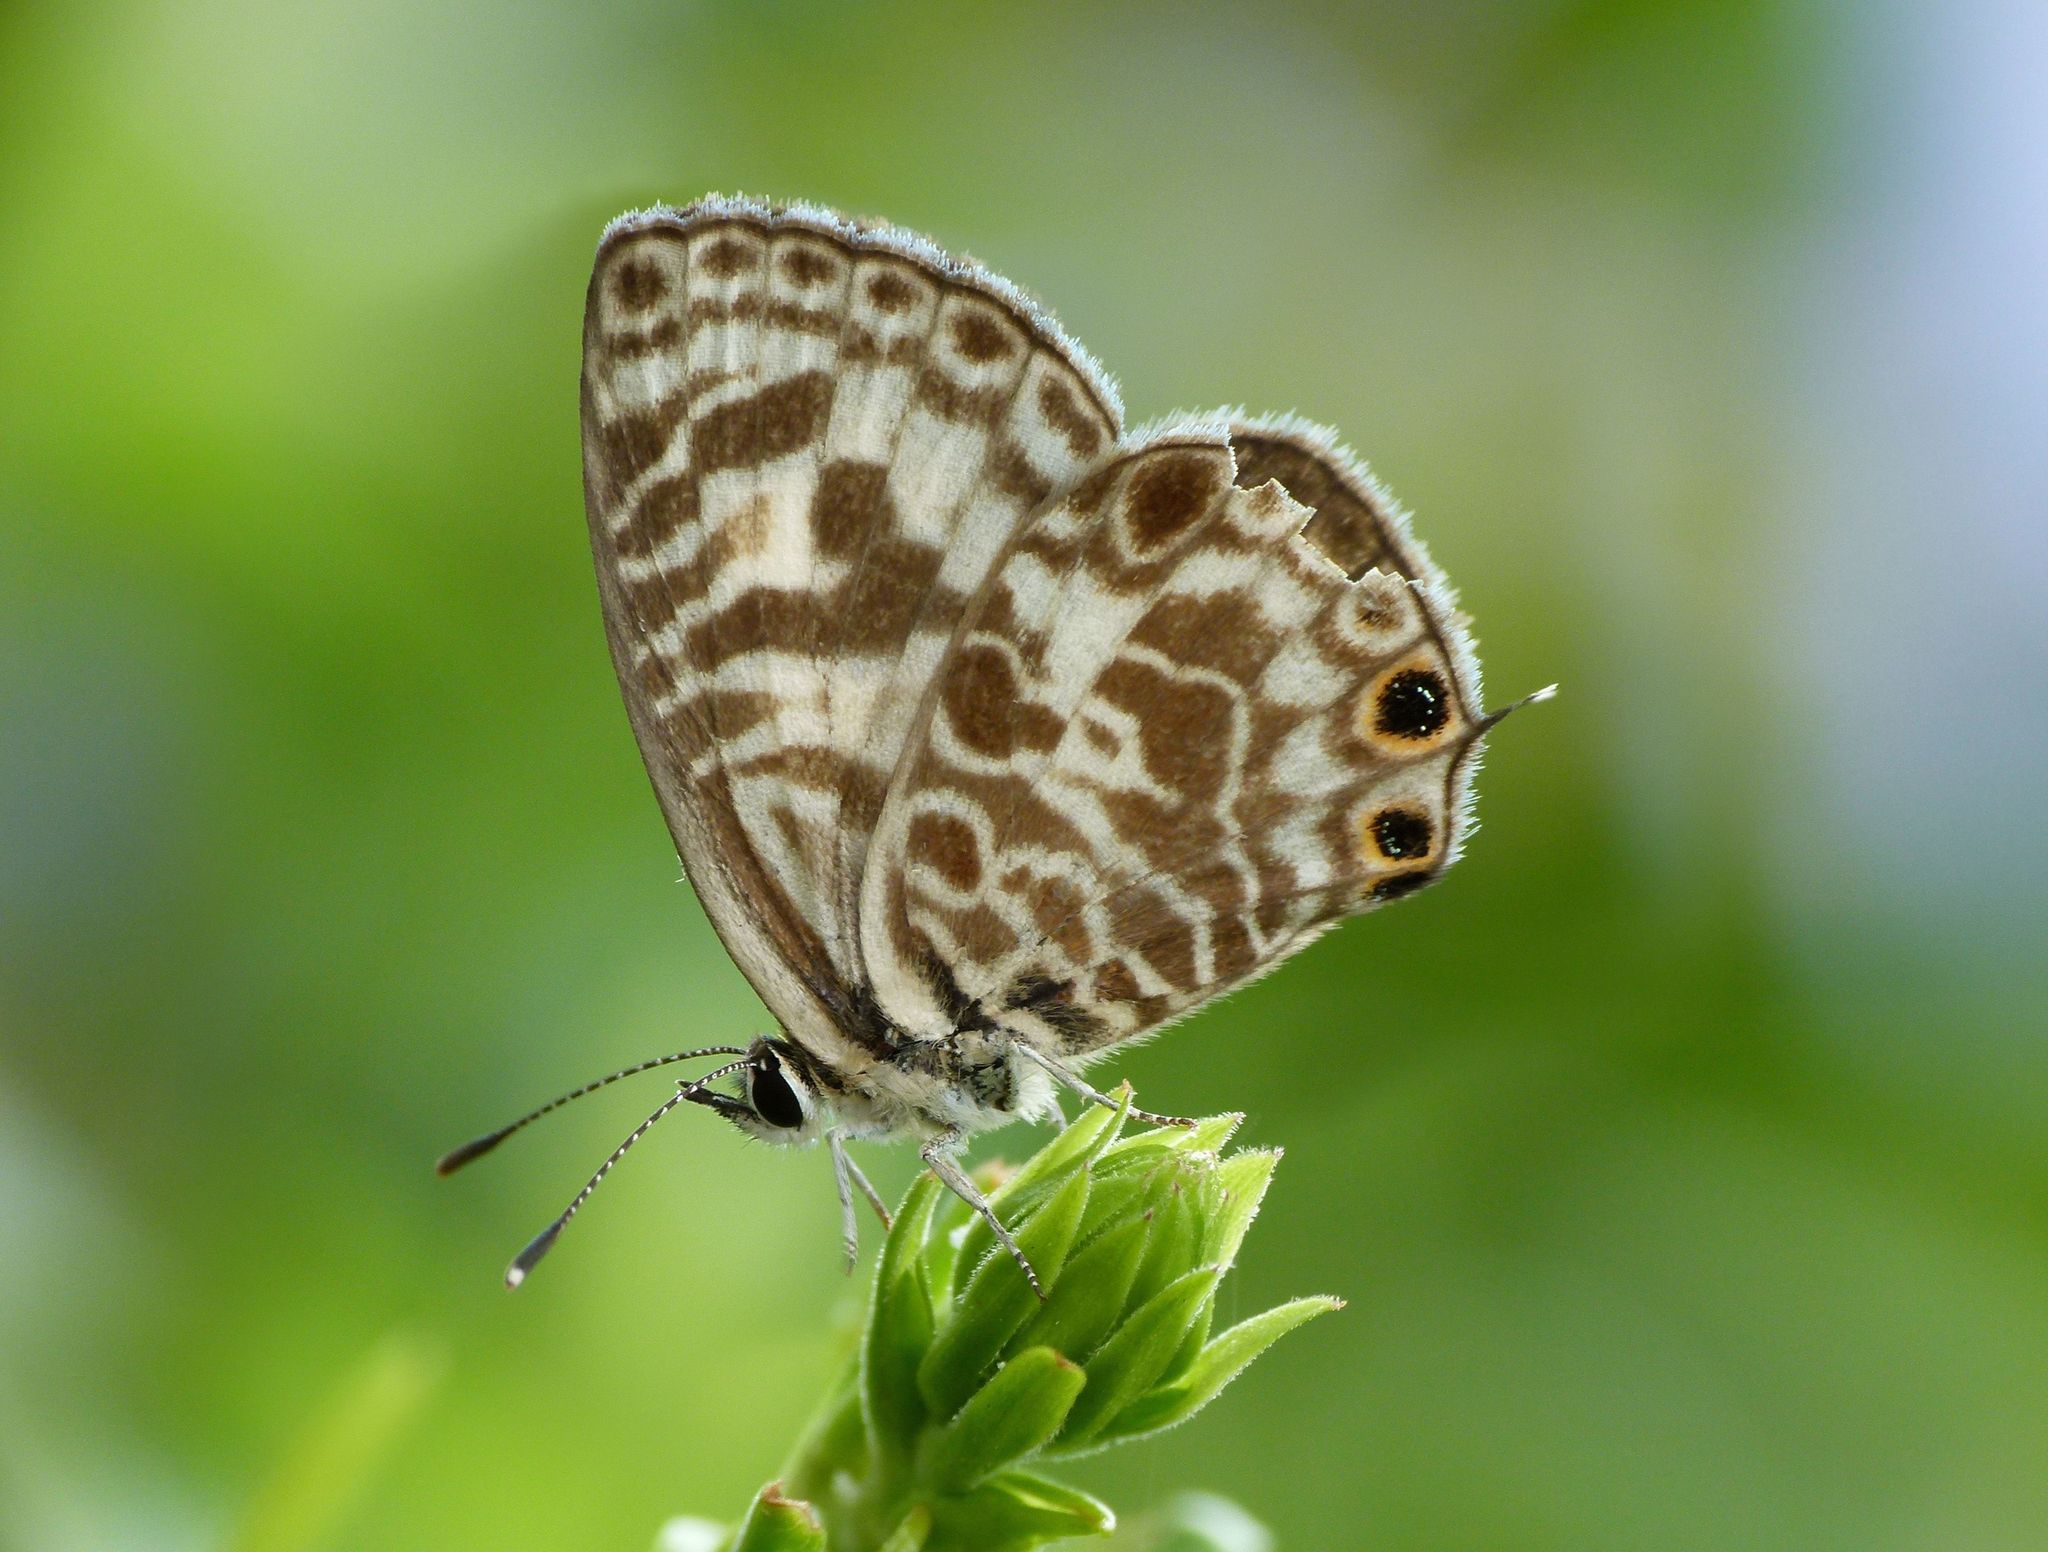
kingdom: Animalia
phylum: Arthropoda
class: Insecta
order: Lepidoptera
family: Lycaenidae
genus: Leptotes
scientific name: Leptotes plinius
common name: Zebra blue
